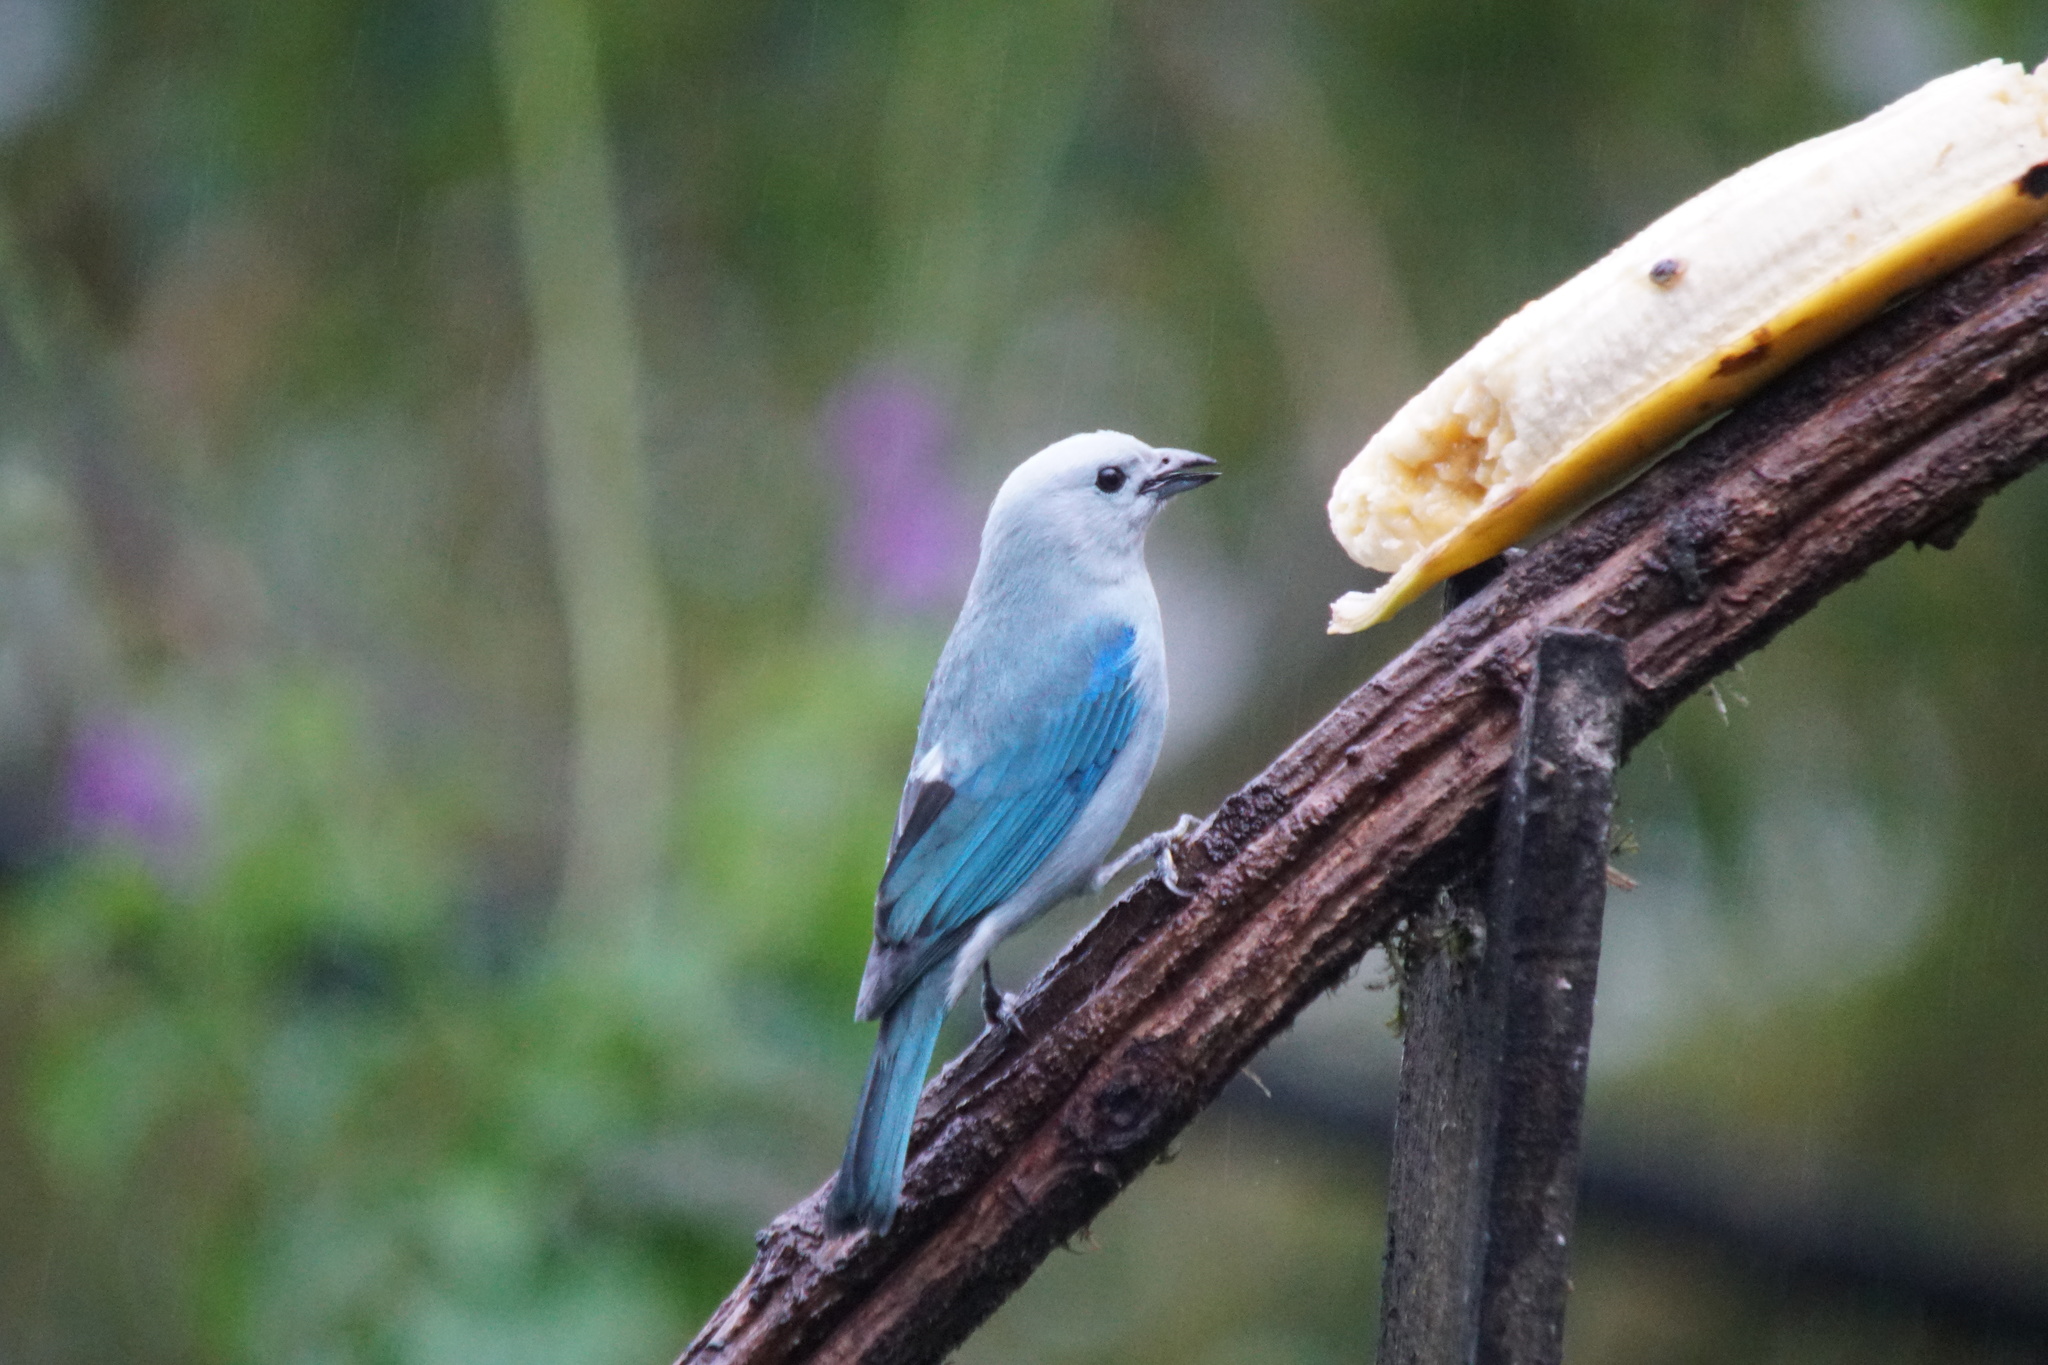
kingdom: Animalia
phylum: Chordata
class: Aves
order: Passeriformes
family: Thraupidae
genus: Thraupis
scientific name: Thraupis episcopus
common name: Blue-grey tanager
